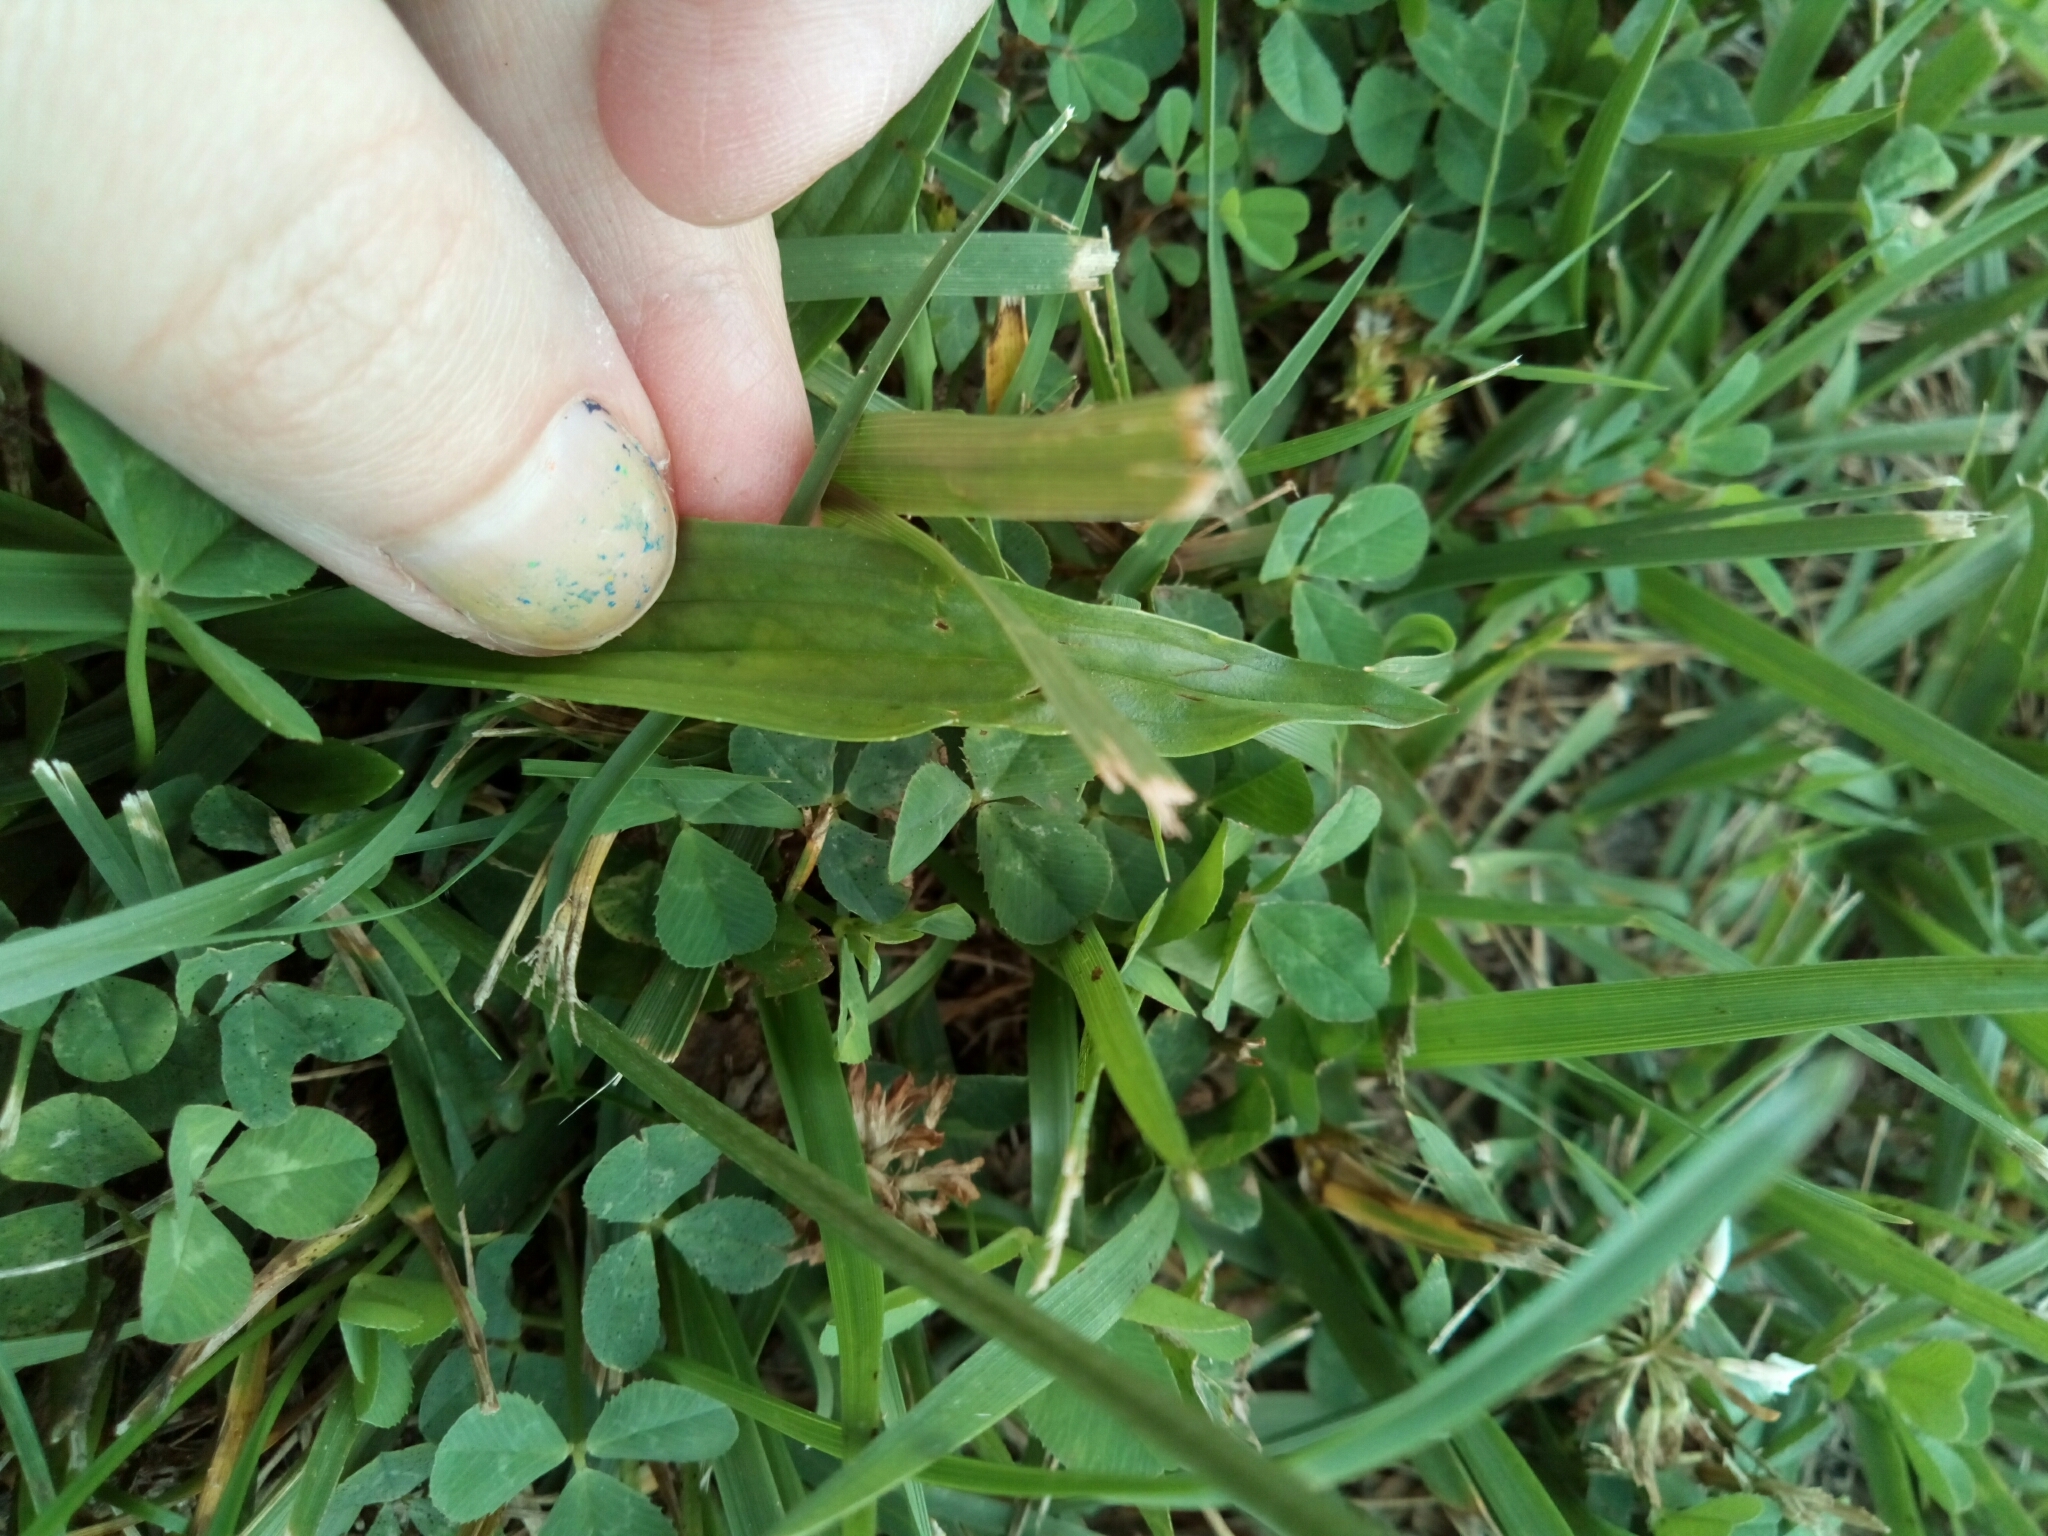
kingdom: Plantae
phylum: Tracheophyta
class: Magnoliopsida
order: Lamiales
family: Plantaginaceae
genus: Plantago
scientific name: Plantago lanceolata
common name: Ribwort plantain
